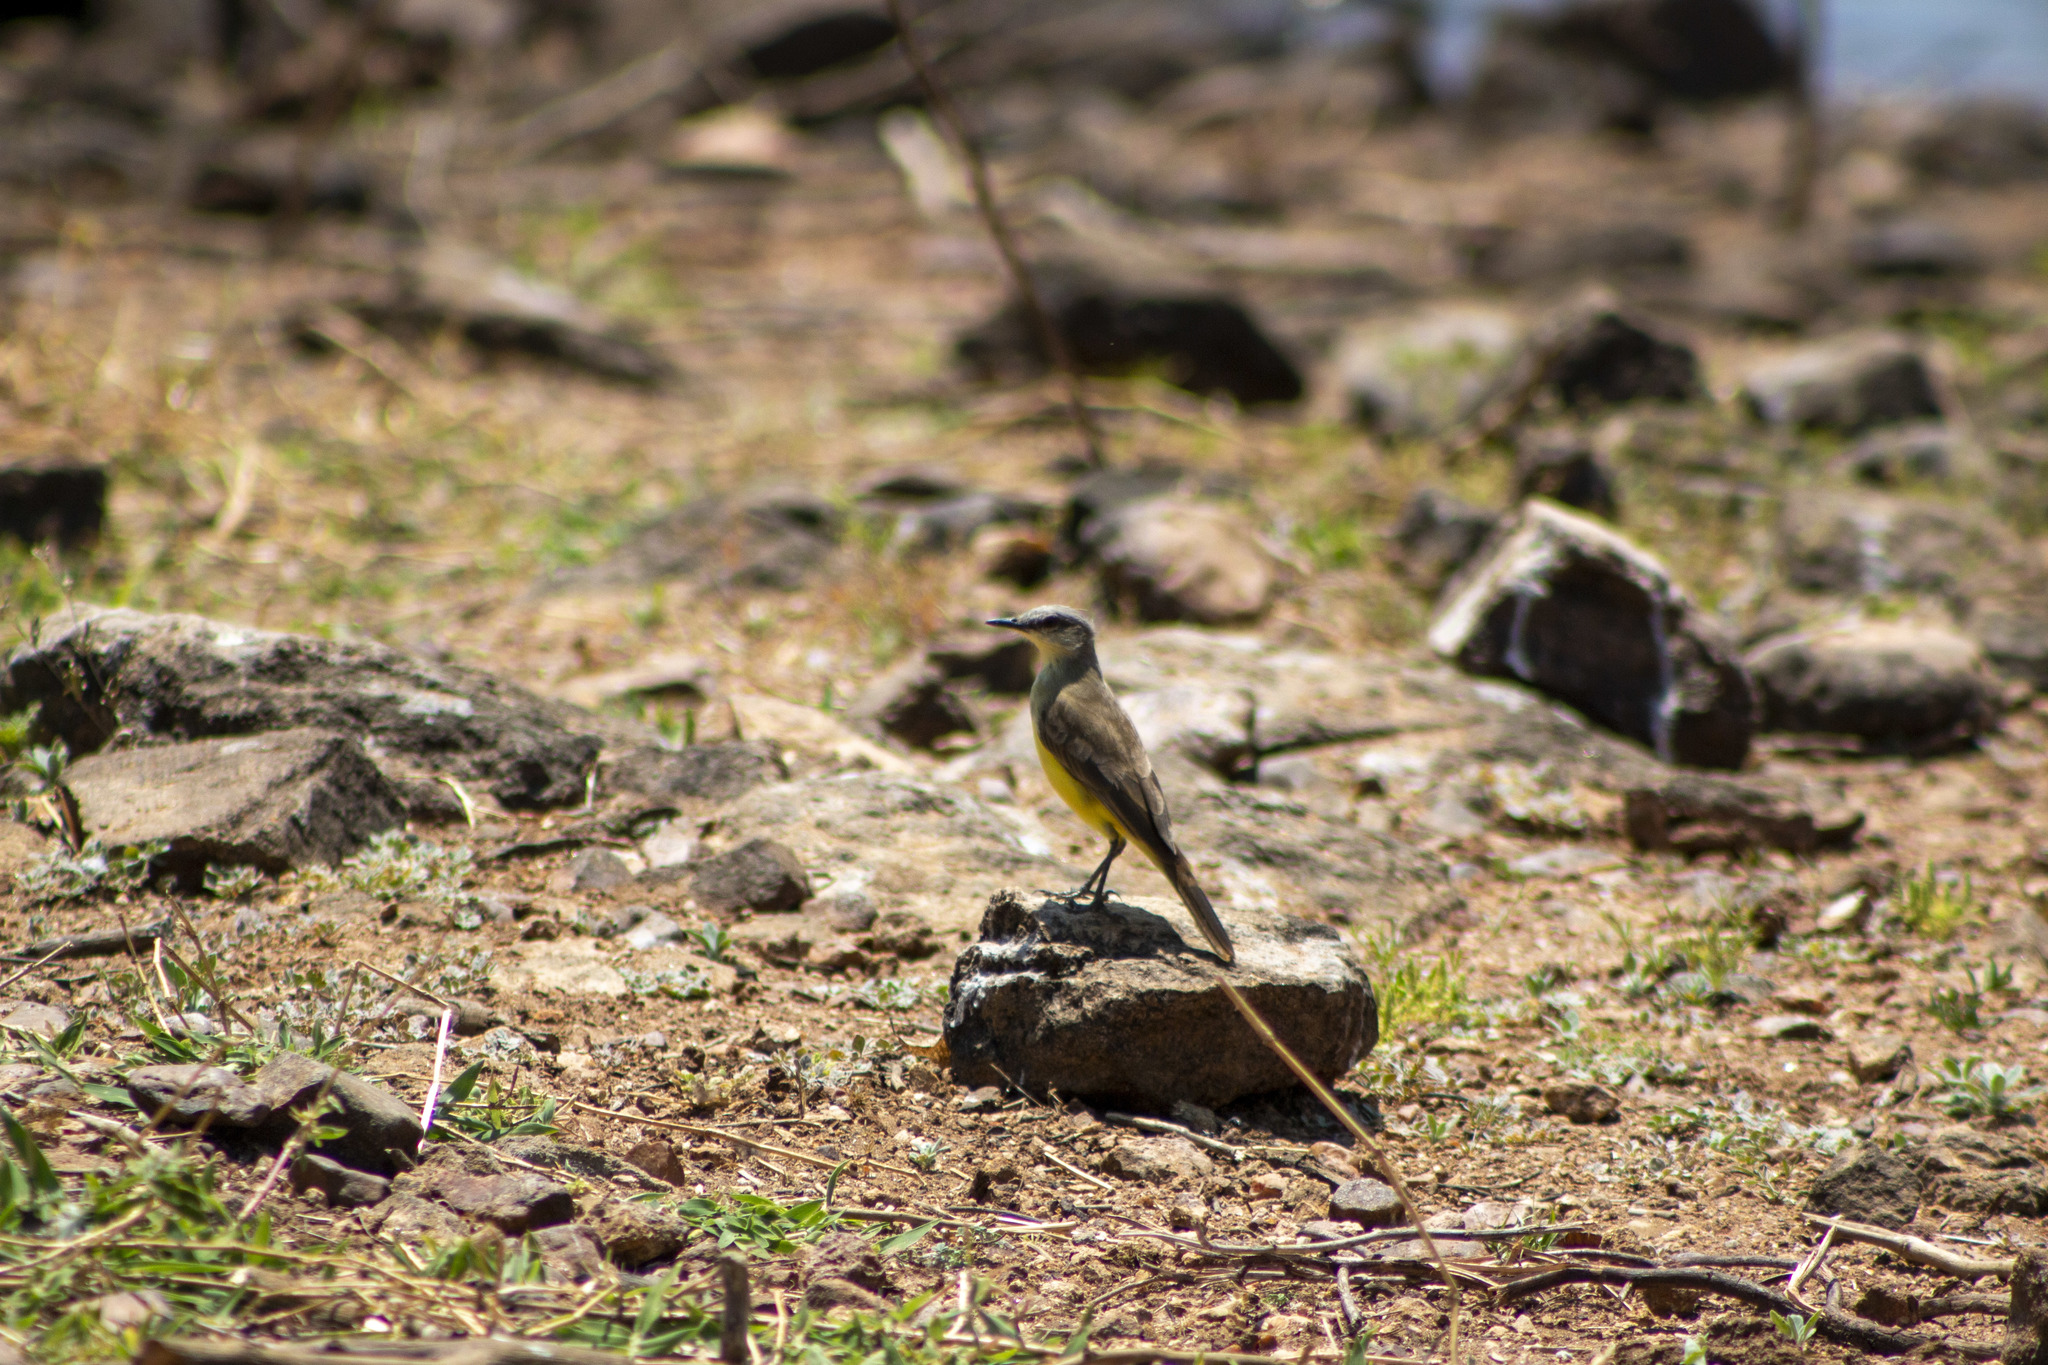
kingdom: Animalia
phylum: Chordata
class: Aves
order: Passeriformes
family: Tyrannidae
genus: Machetornis
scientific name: Machetornis rixosa
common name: Cattle tyrant
